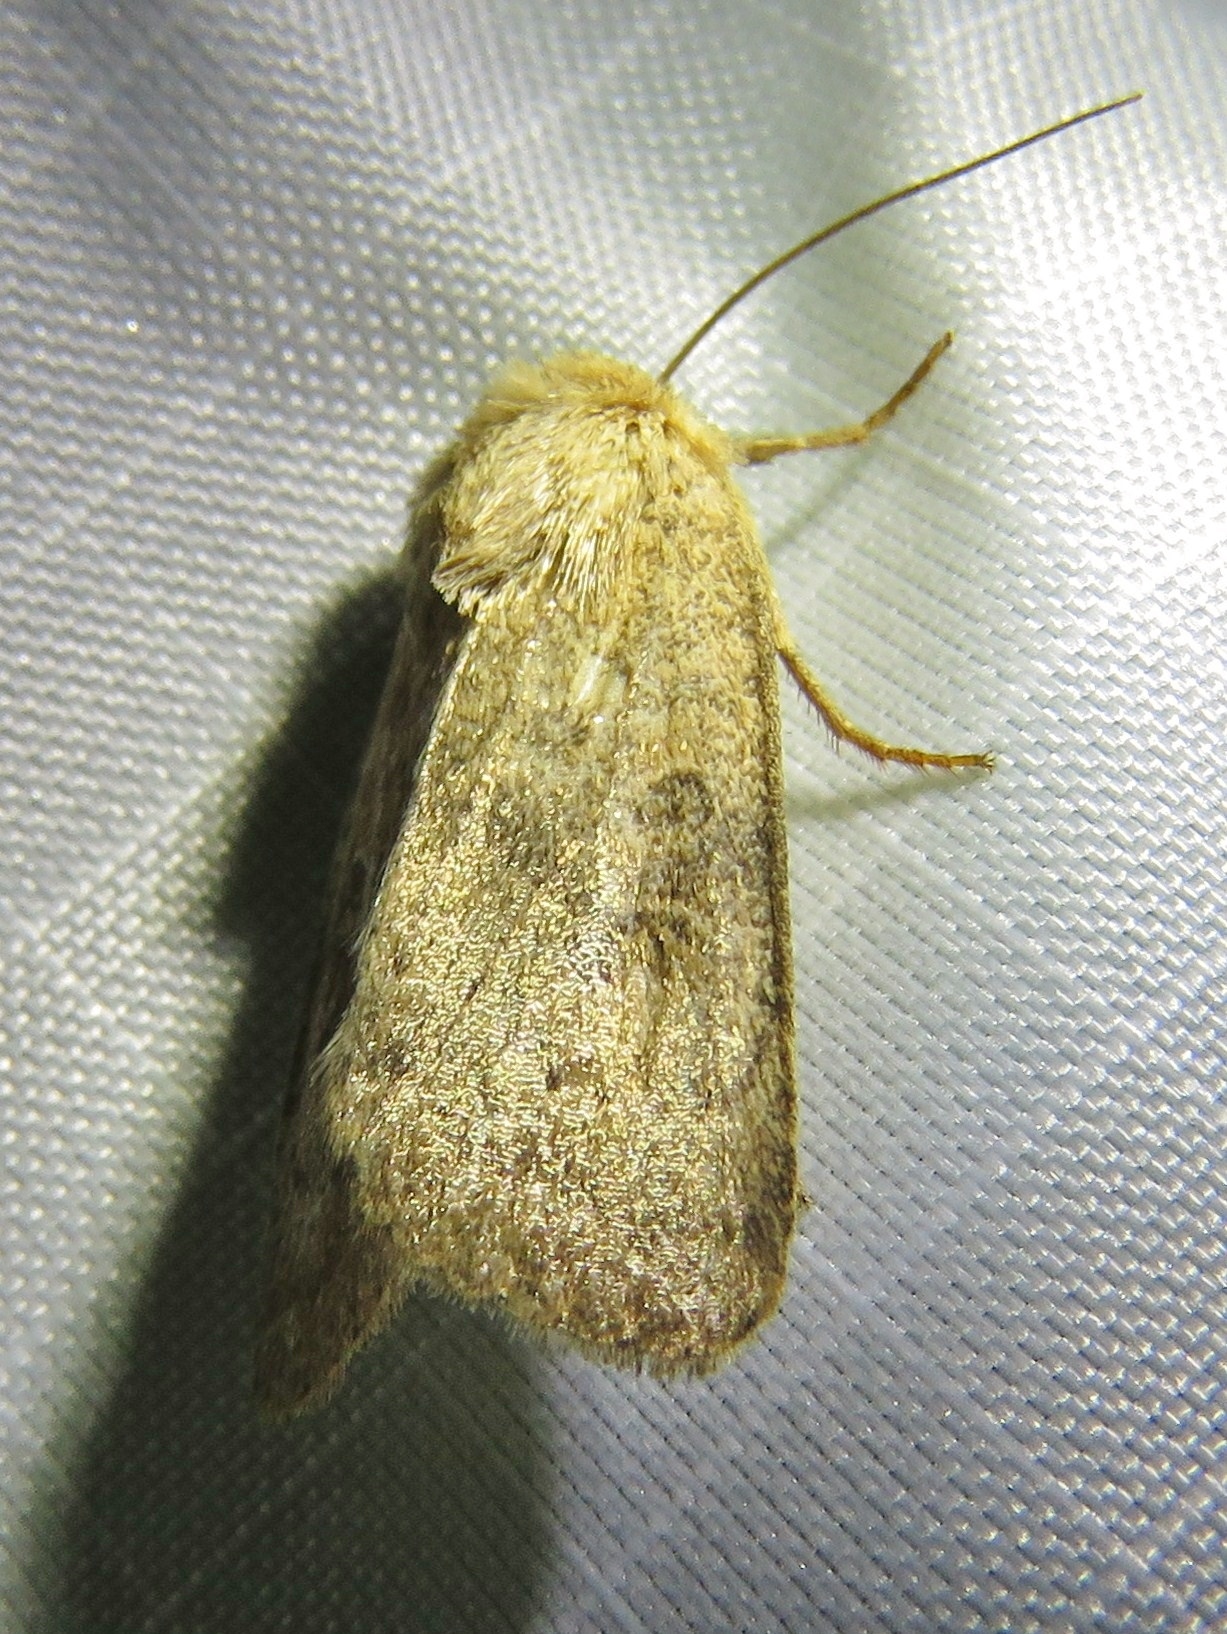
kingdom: Animalia
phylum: Arthropoda
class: Insecta
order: Lepidoptera
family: Noctuidae
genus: Hoplodrina
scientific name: Hoplodrina octogenaria
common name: Uncertain
